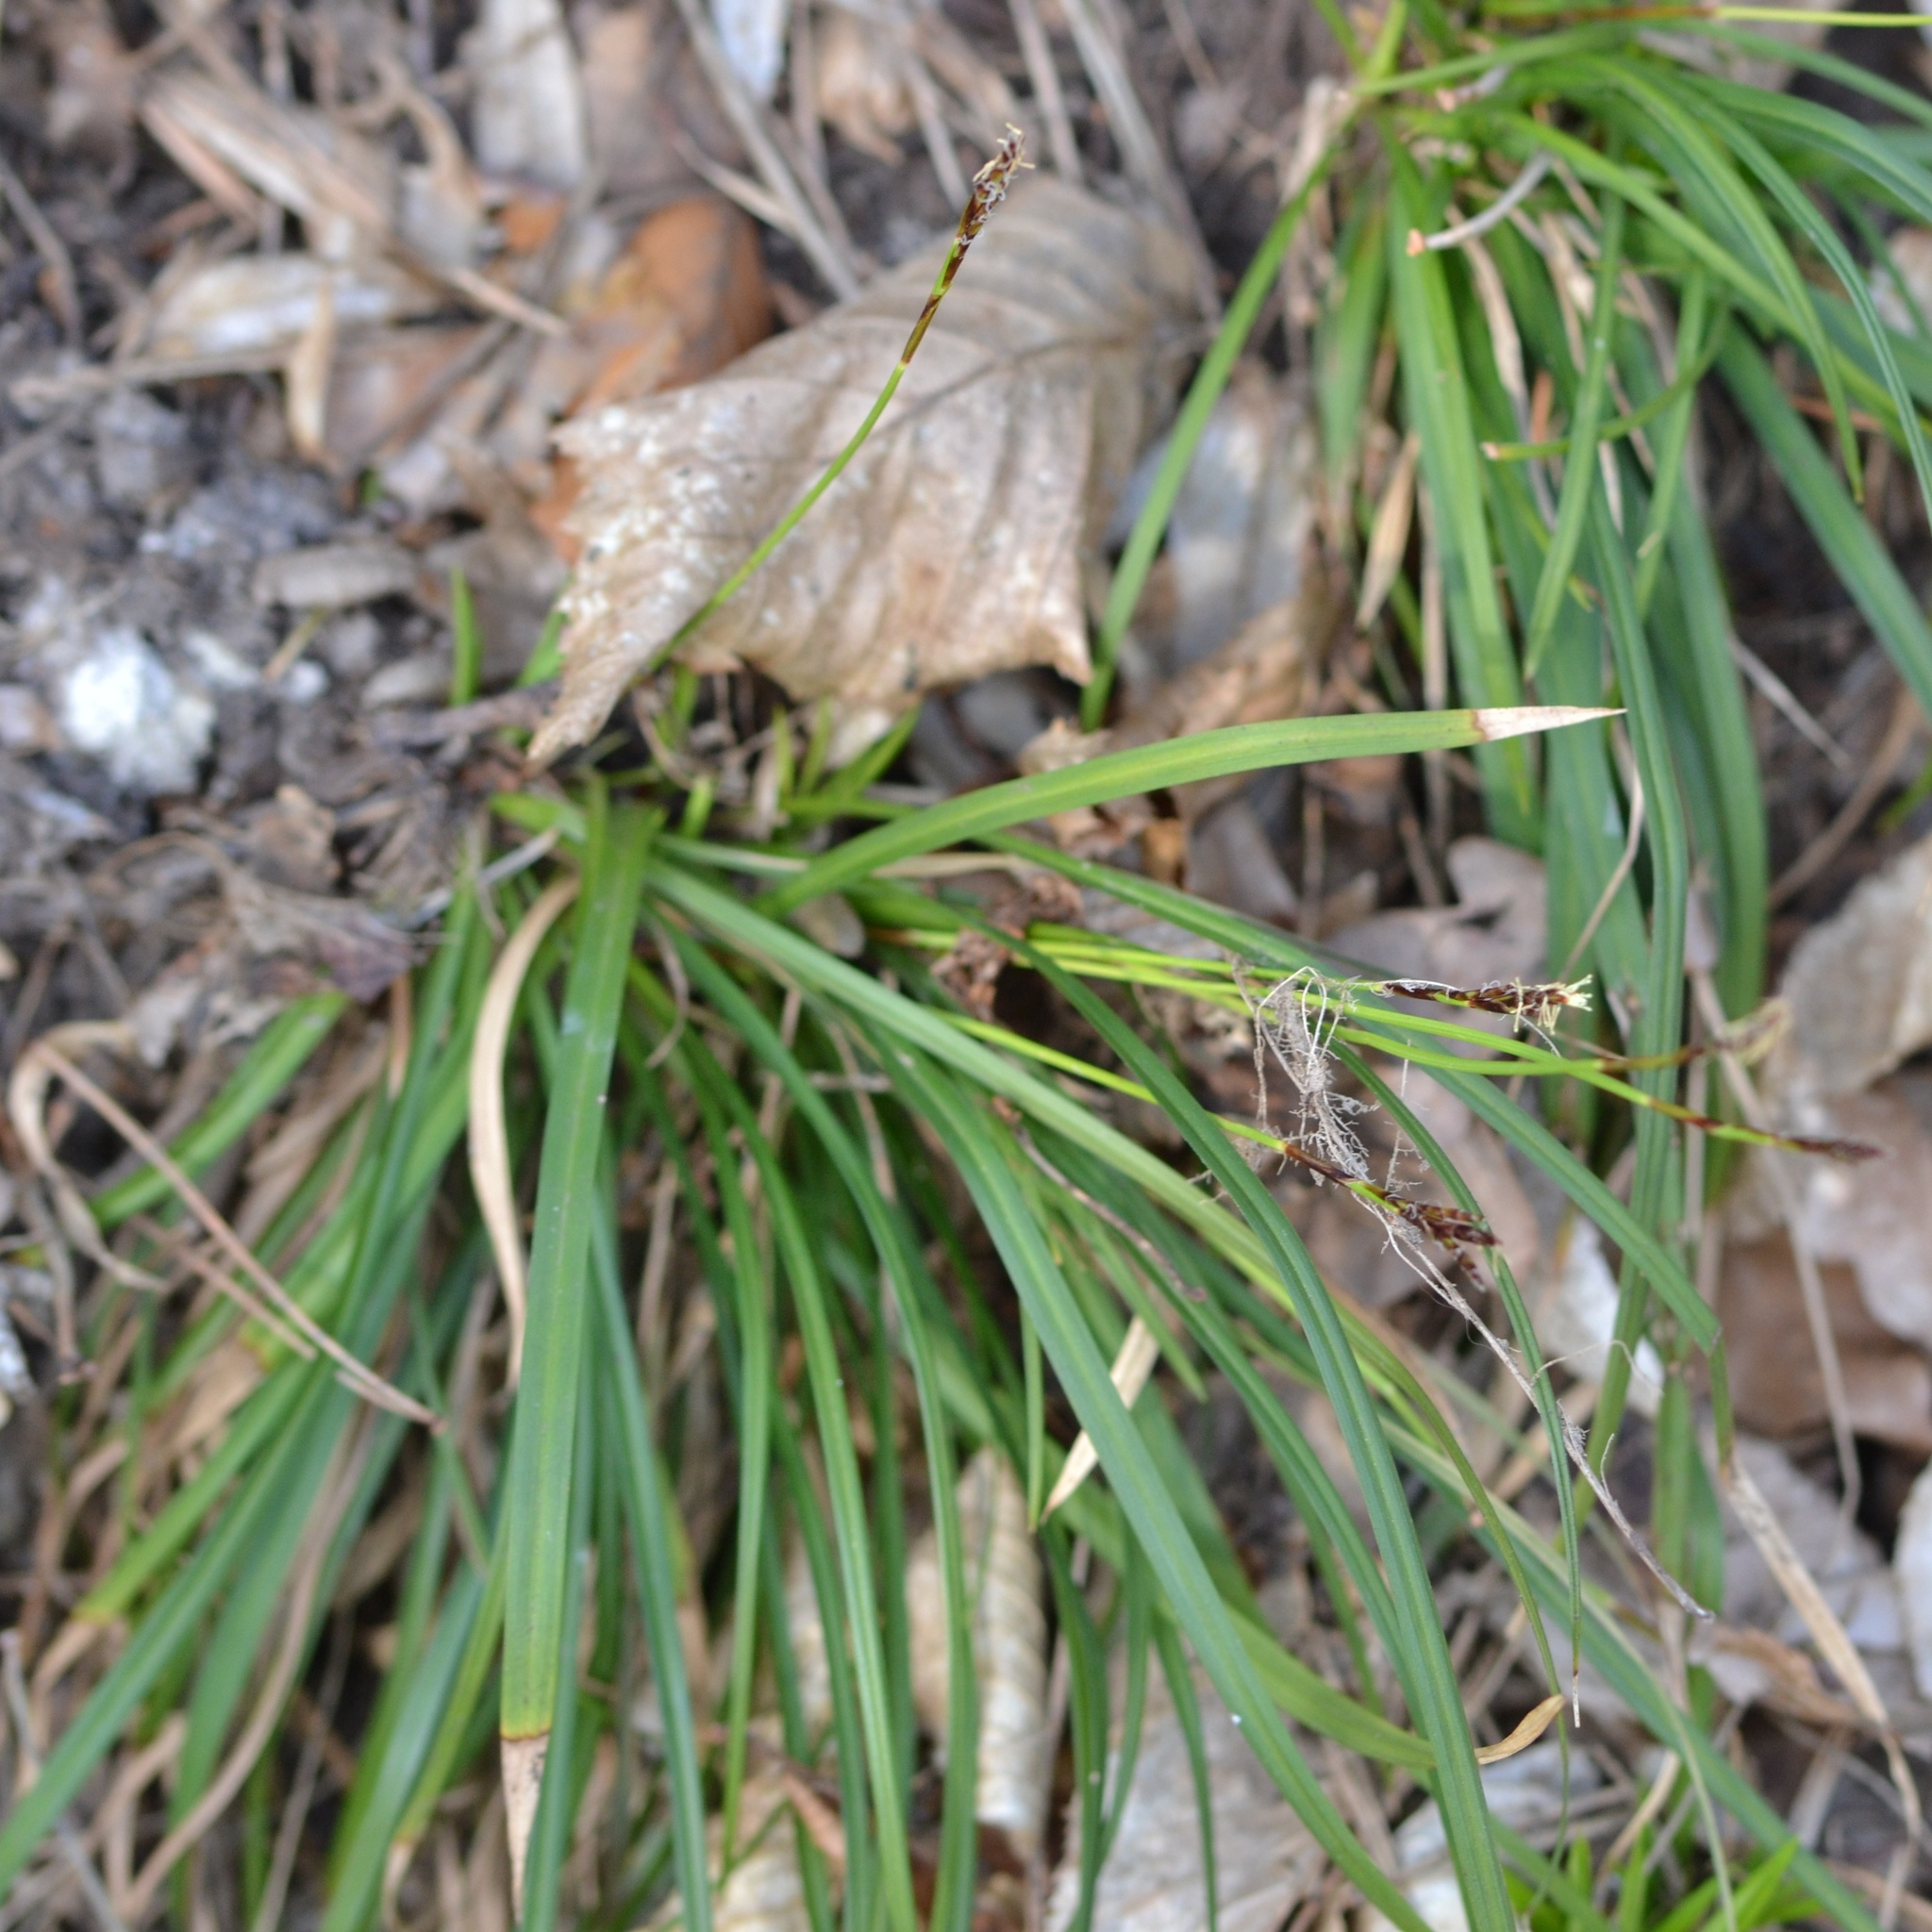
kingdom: Plantae
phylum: Tracheophyta
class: Liliopsida
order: Poales
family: Cyperaceae
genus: Carex
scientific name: Carex digitata
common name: Fingered sedge
